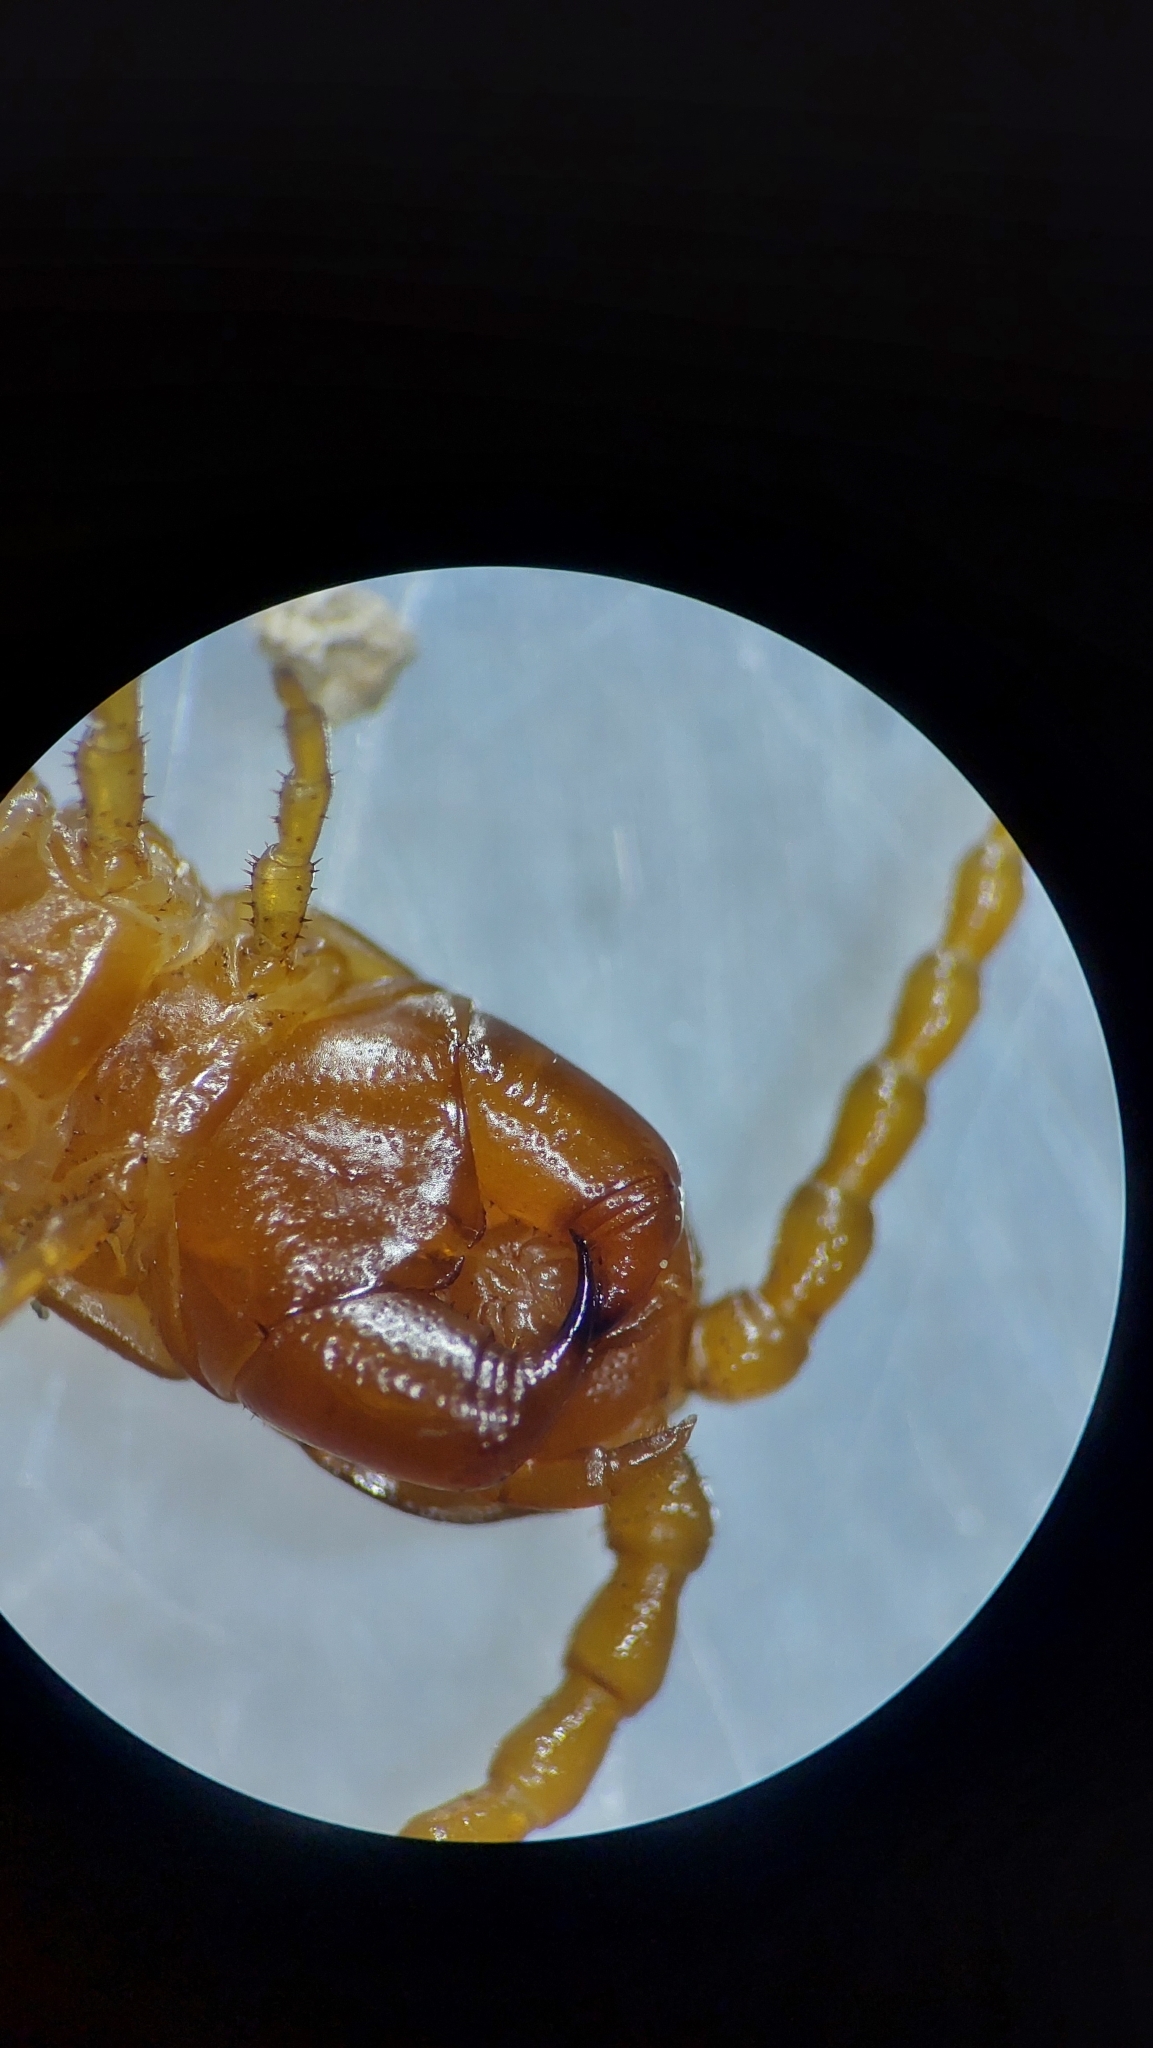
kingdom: Animalia
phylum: Arthropoda
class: Chilopoda
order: Scolopendromorpha
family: Cryptopidae
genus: Cryptops
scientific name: Cryptops anomalans
